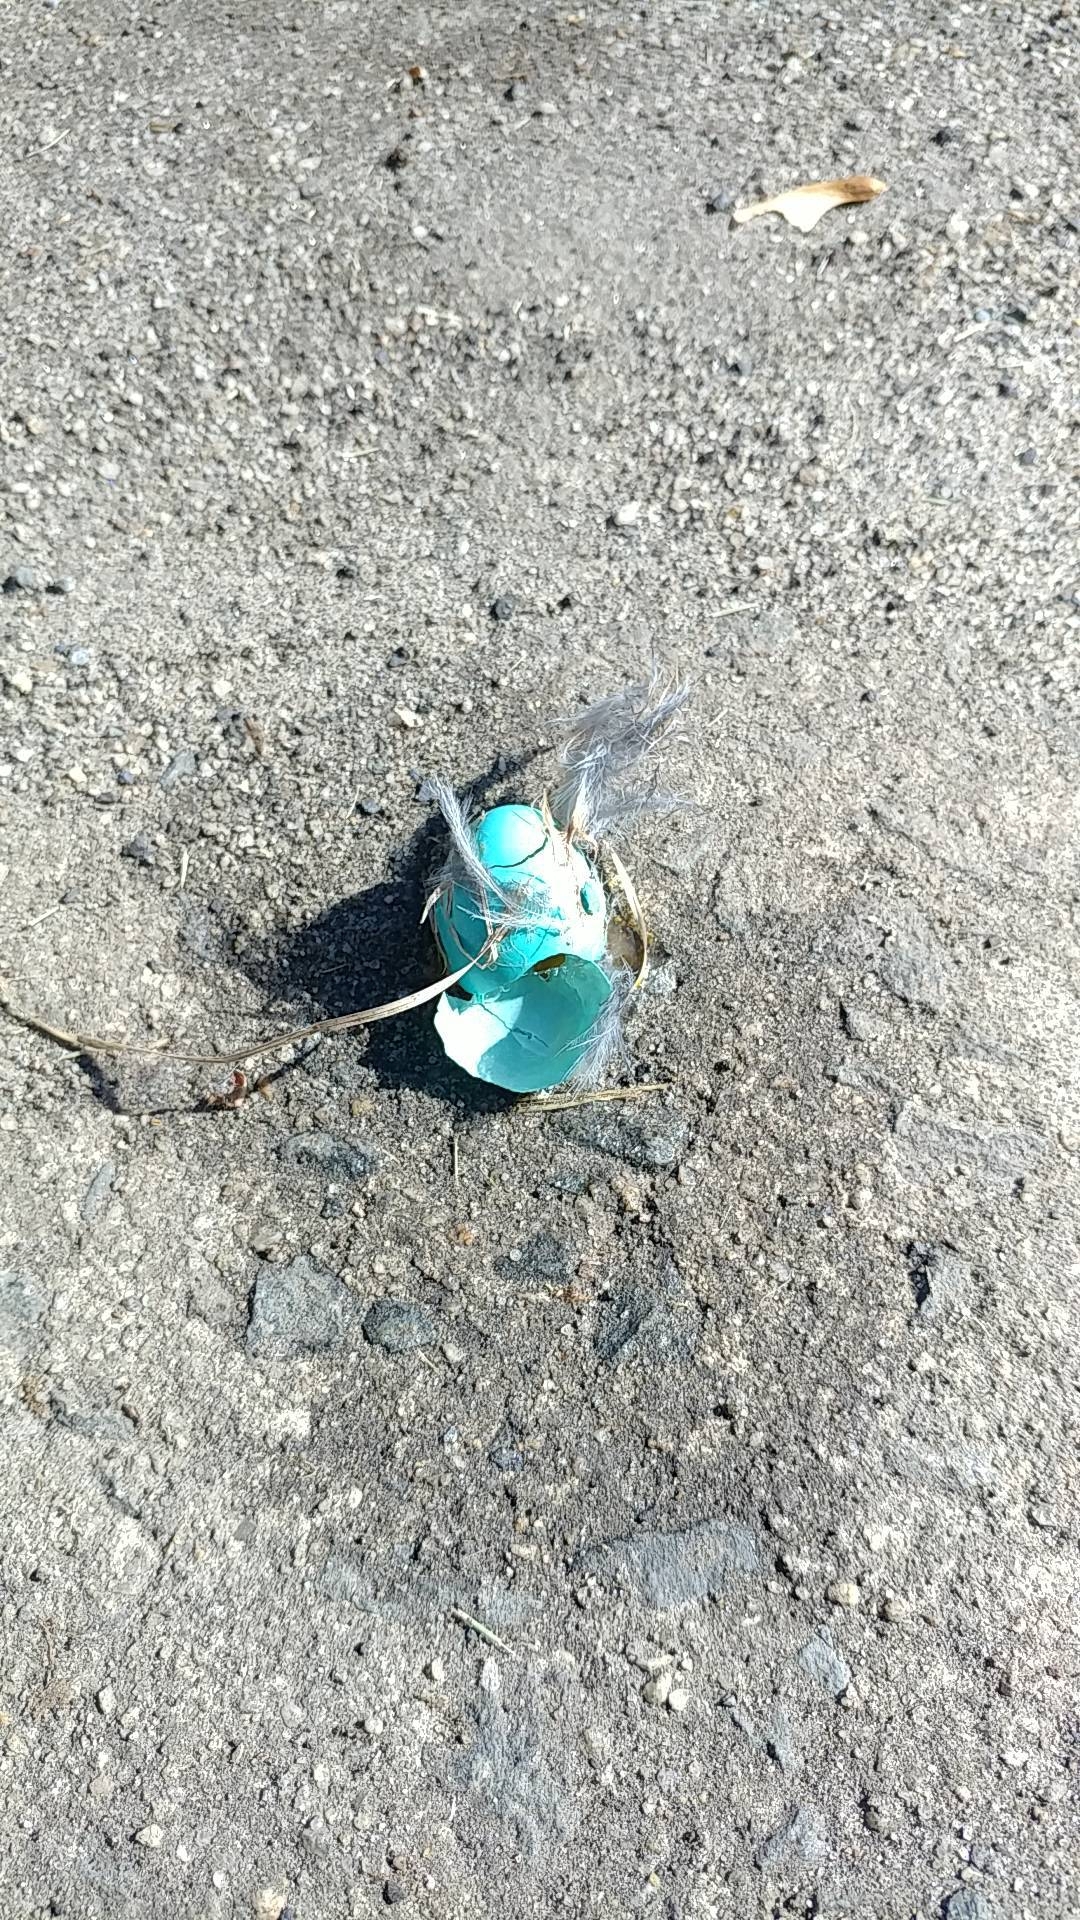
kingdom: Animalia
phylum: Chordata
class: Aves
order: Passeriformes
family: Turdidae
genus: Turdus
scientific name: Turdus migratorius
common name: American robin
